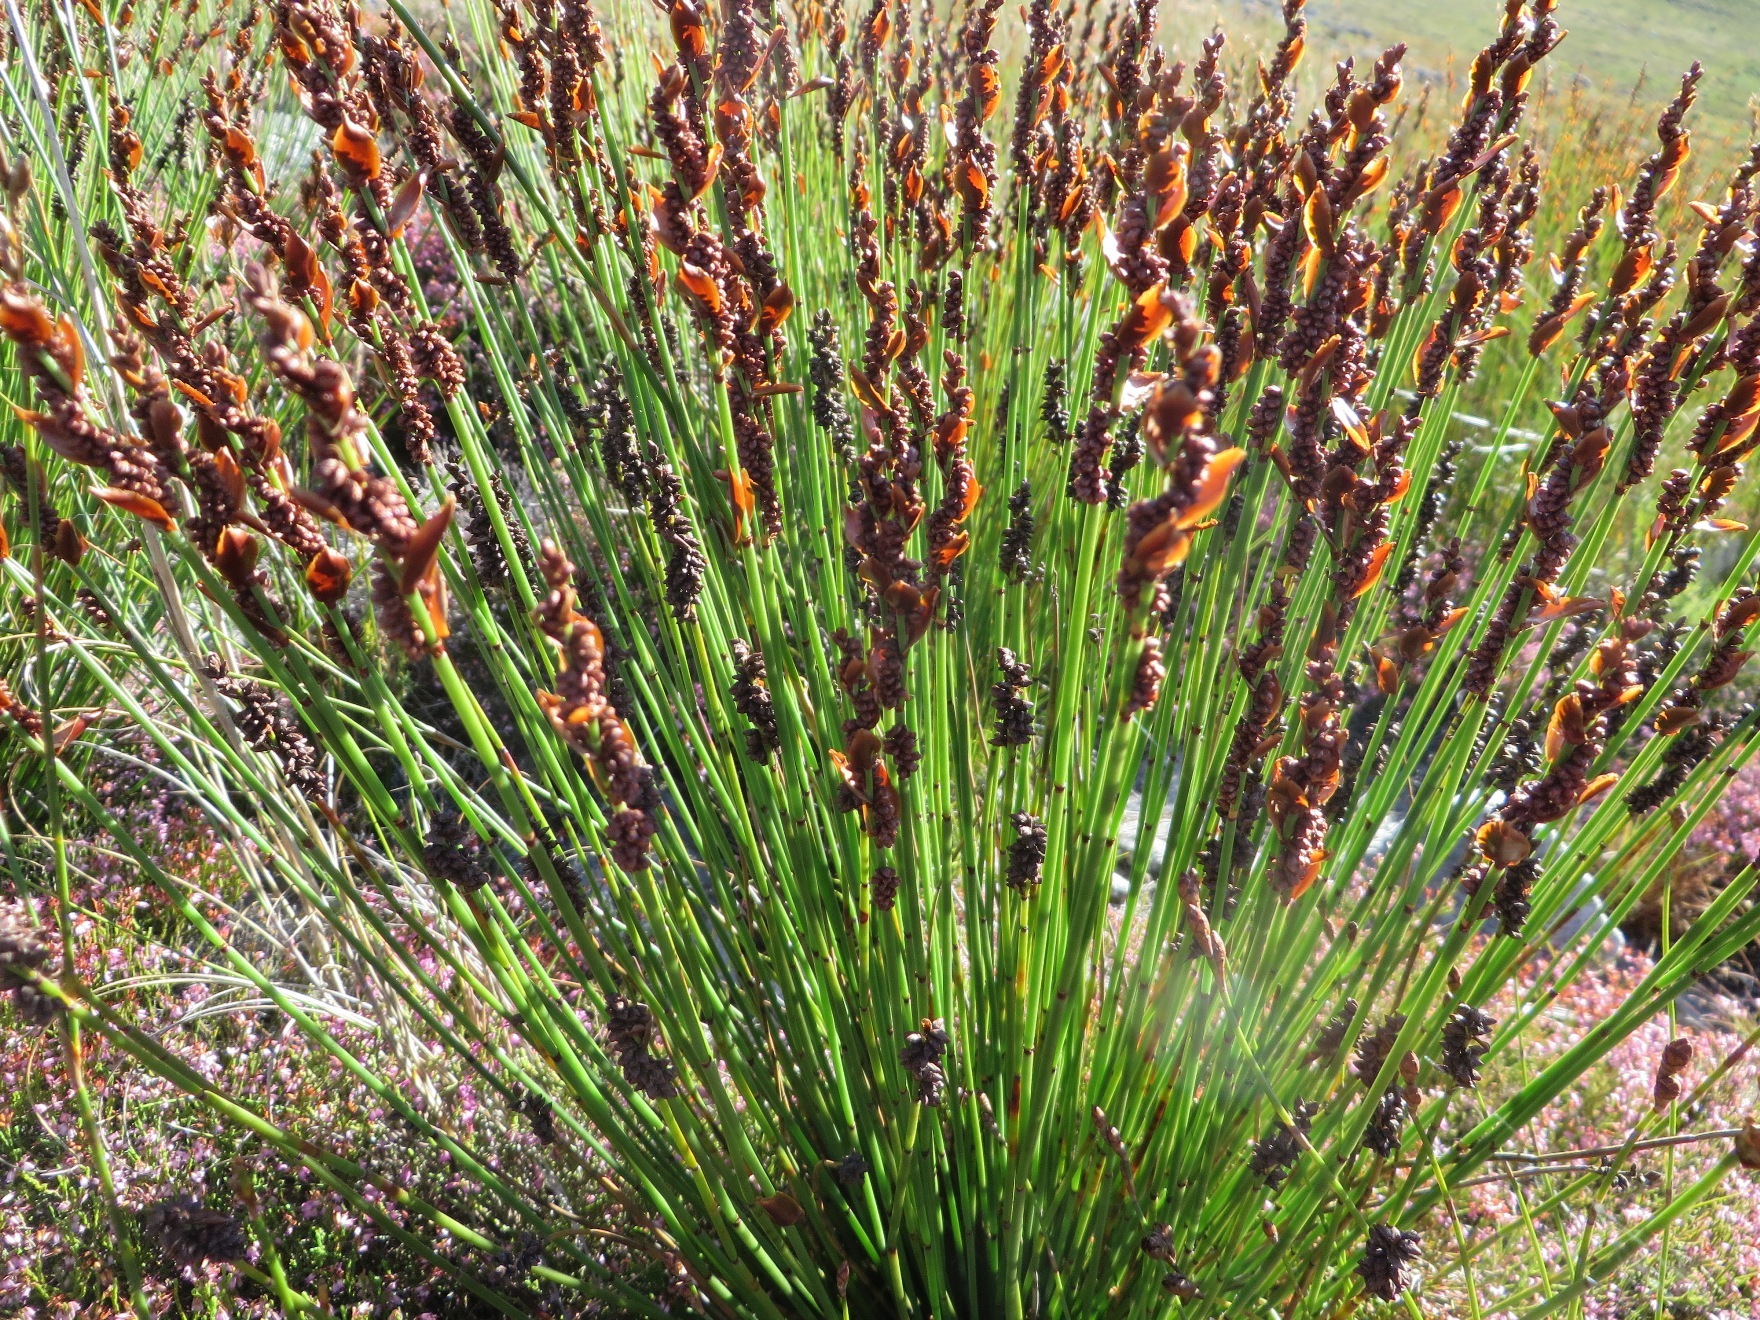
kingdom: Plantae
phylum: Tracheophyta
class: Liliopsida
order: Poales
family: Restionaceae
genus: Elegia
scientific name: Elegia ebracteata
